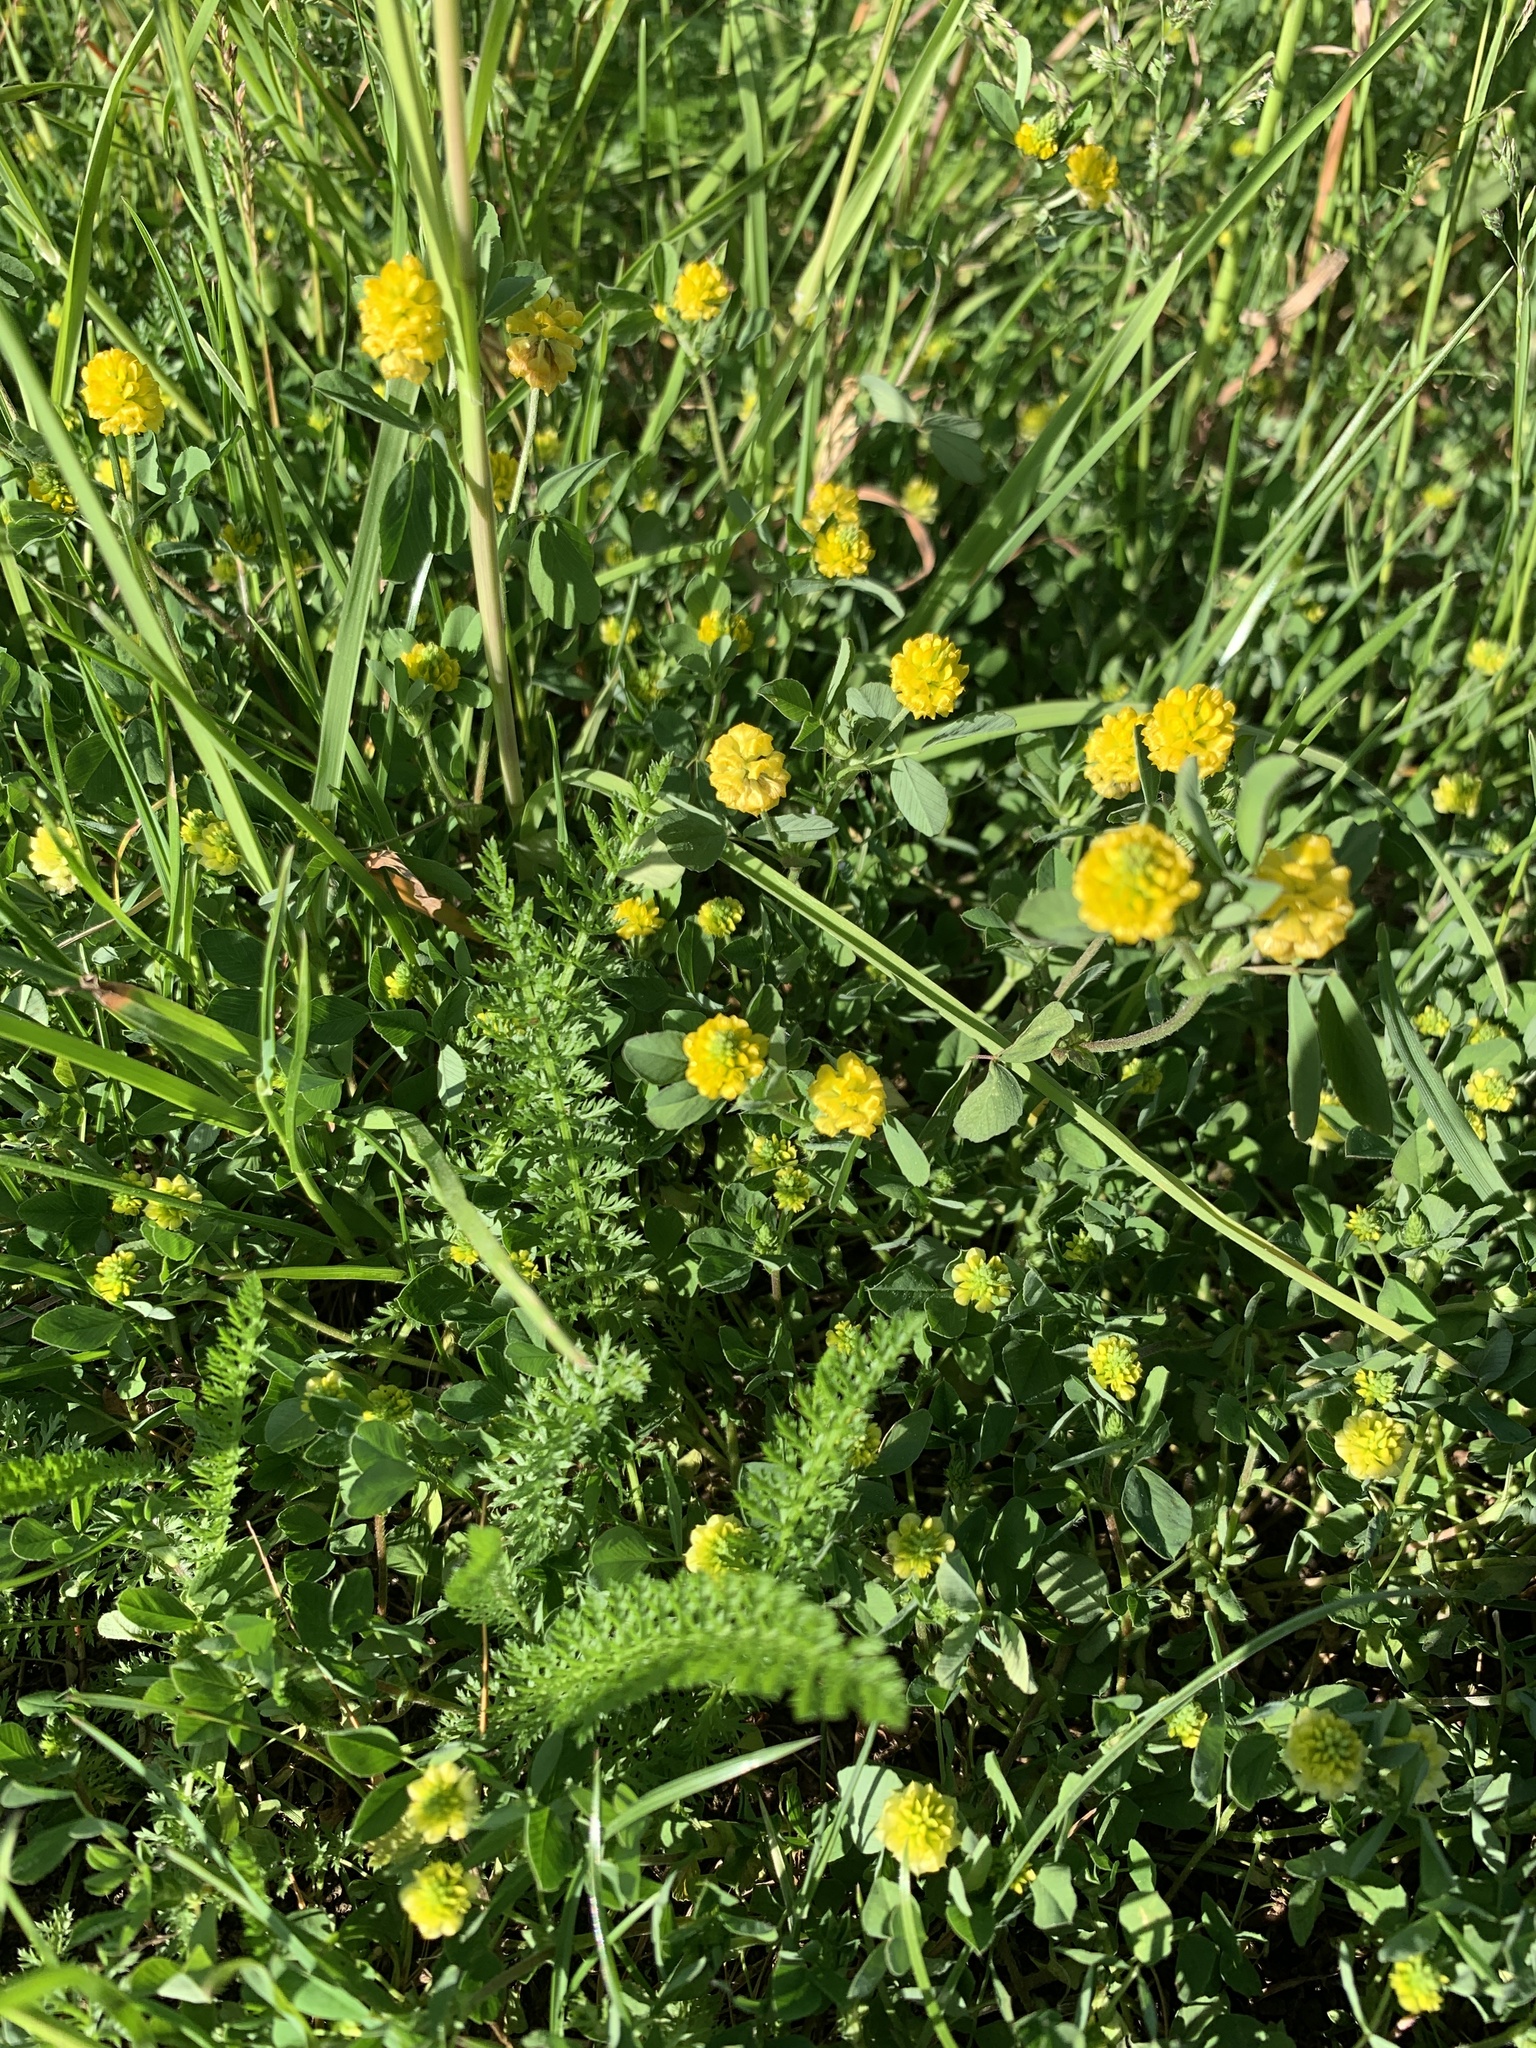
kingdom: Plantae
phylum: Tracheophyta
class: Magnoliopsida
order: Fabales
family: Fabaceae
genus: Trifolium
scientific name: Trifolium campestre
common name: Field clover
